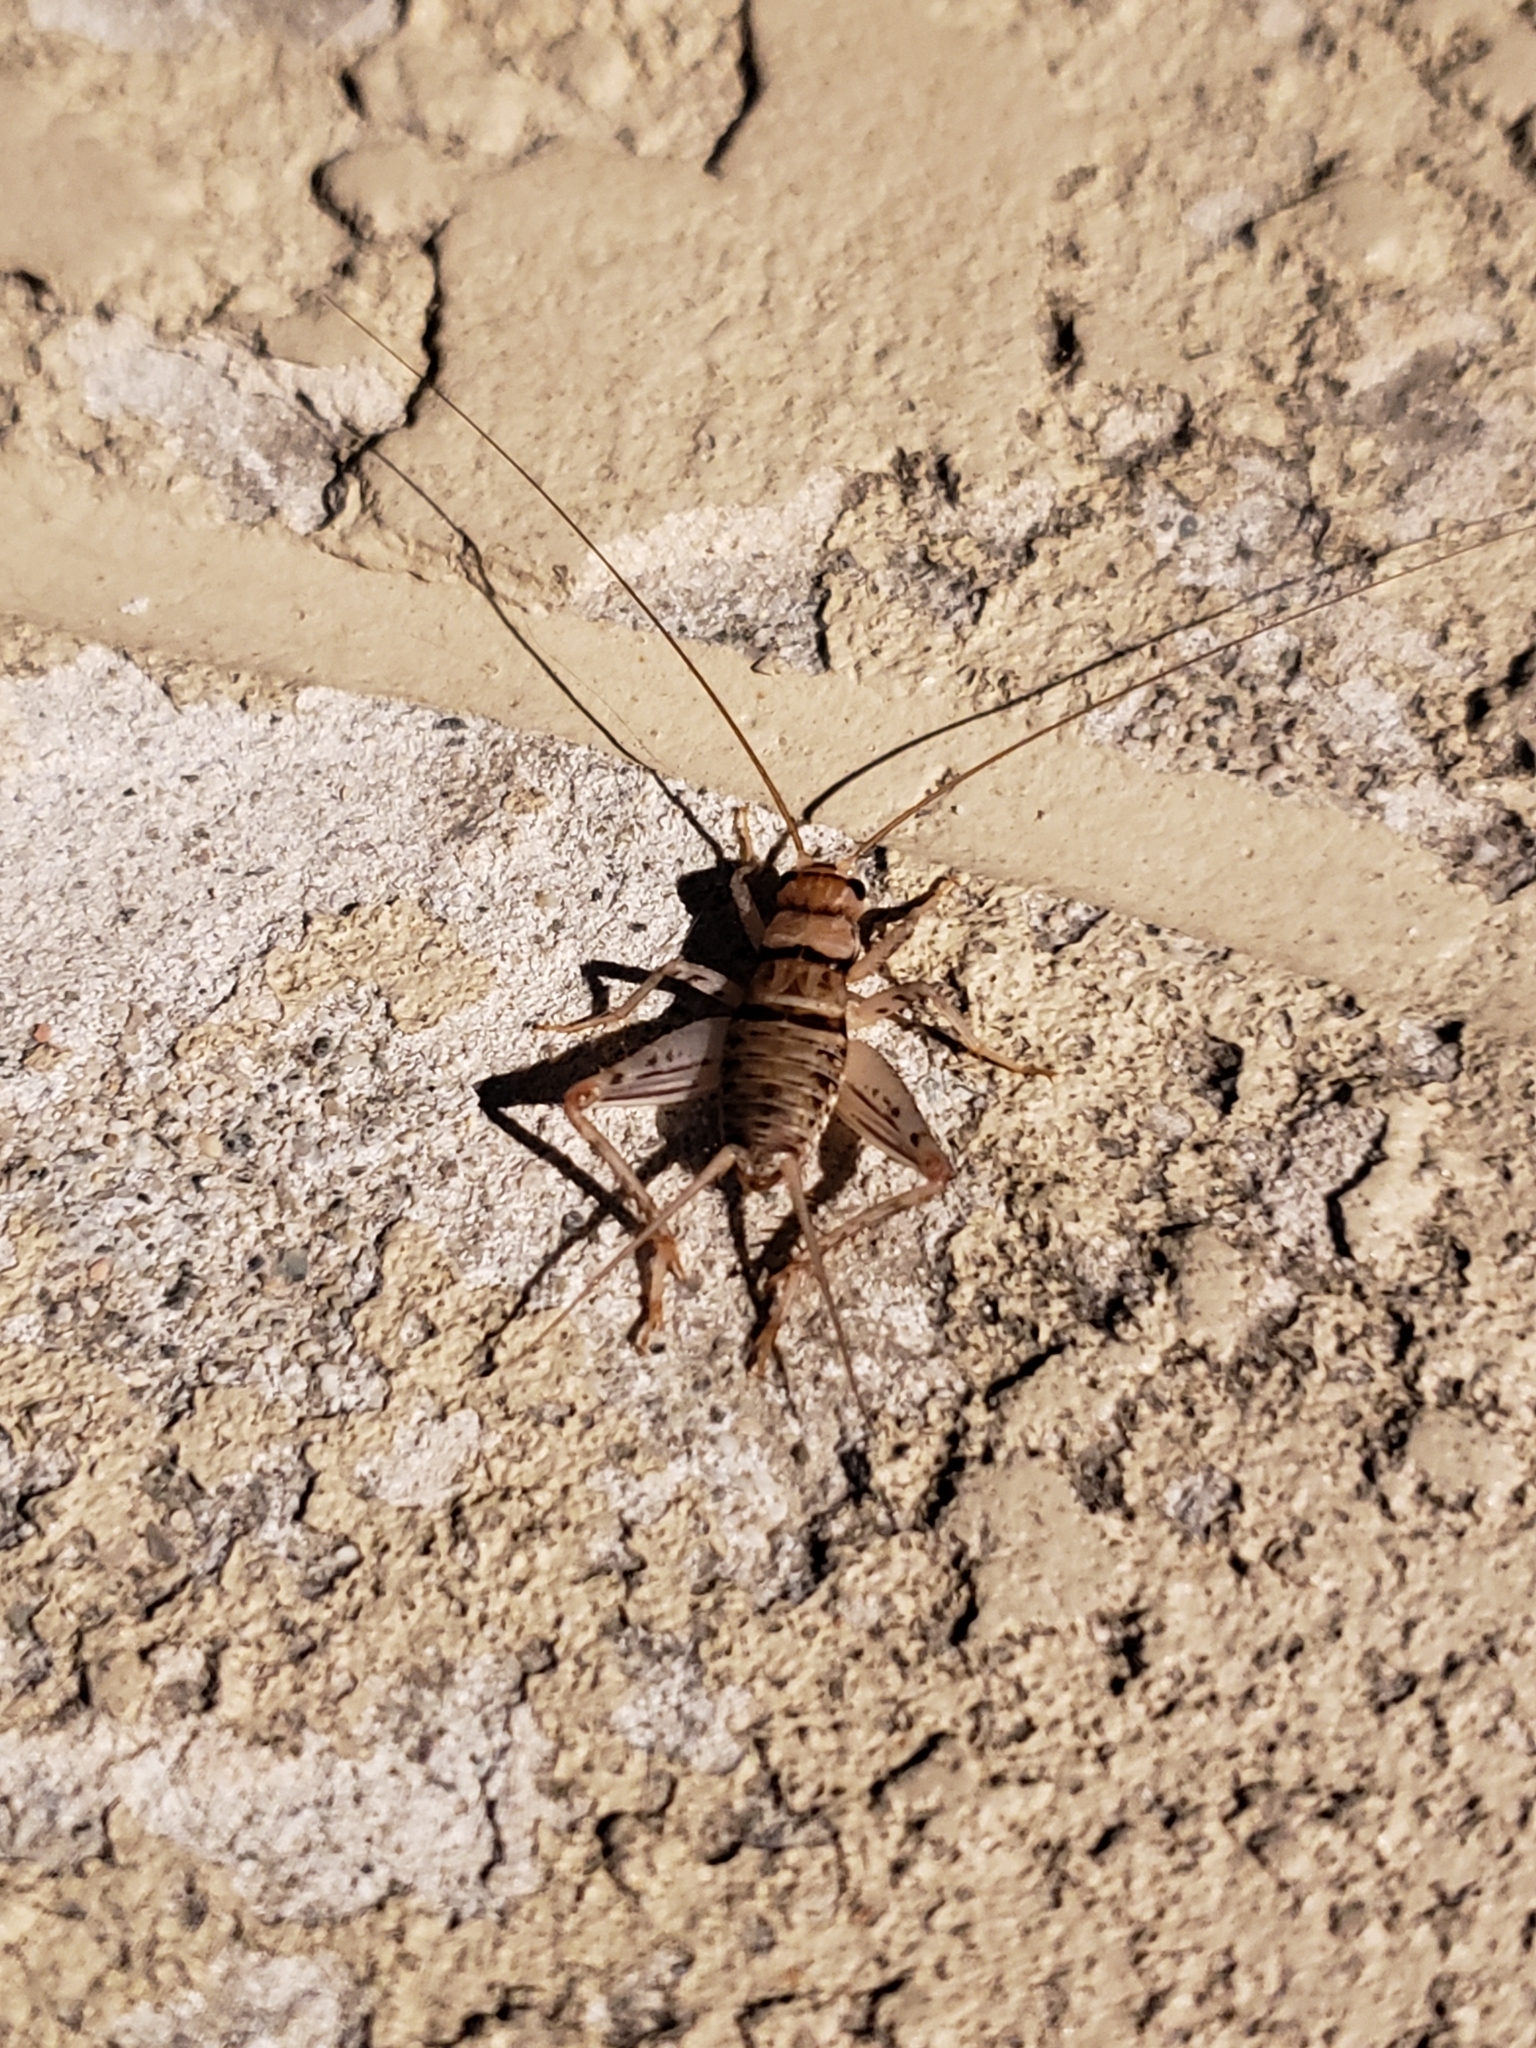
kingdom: Animalia
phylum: Arthropoda
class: Insecta
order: Orthoptera
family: Gryllidae
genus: Gryllodes
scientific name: Gryllodes sigillatus
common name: Tropical house cricket
